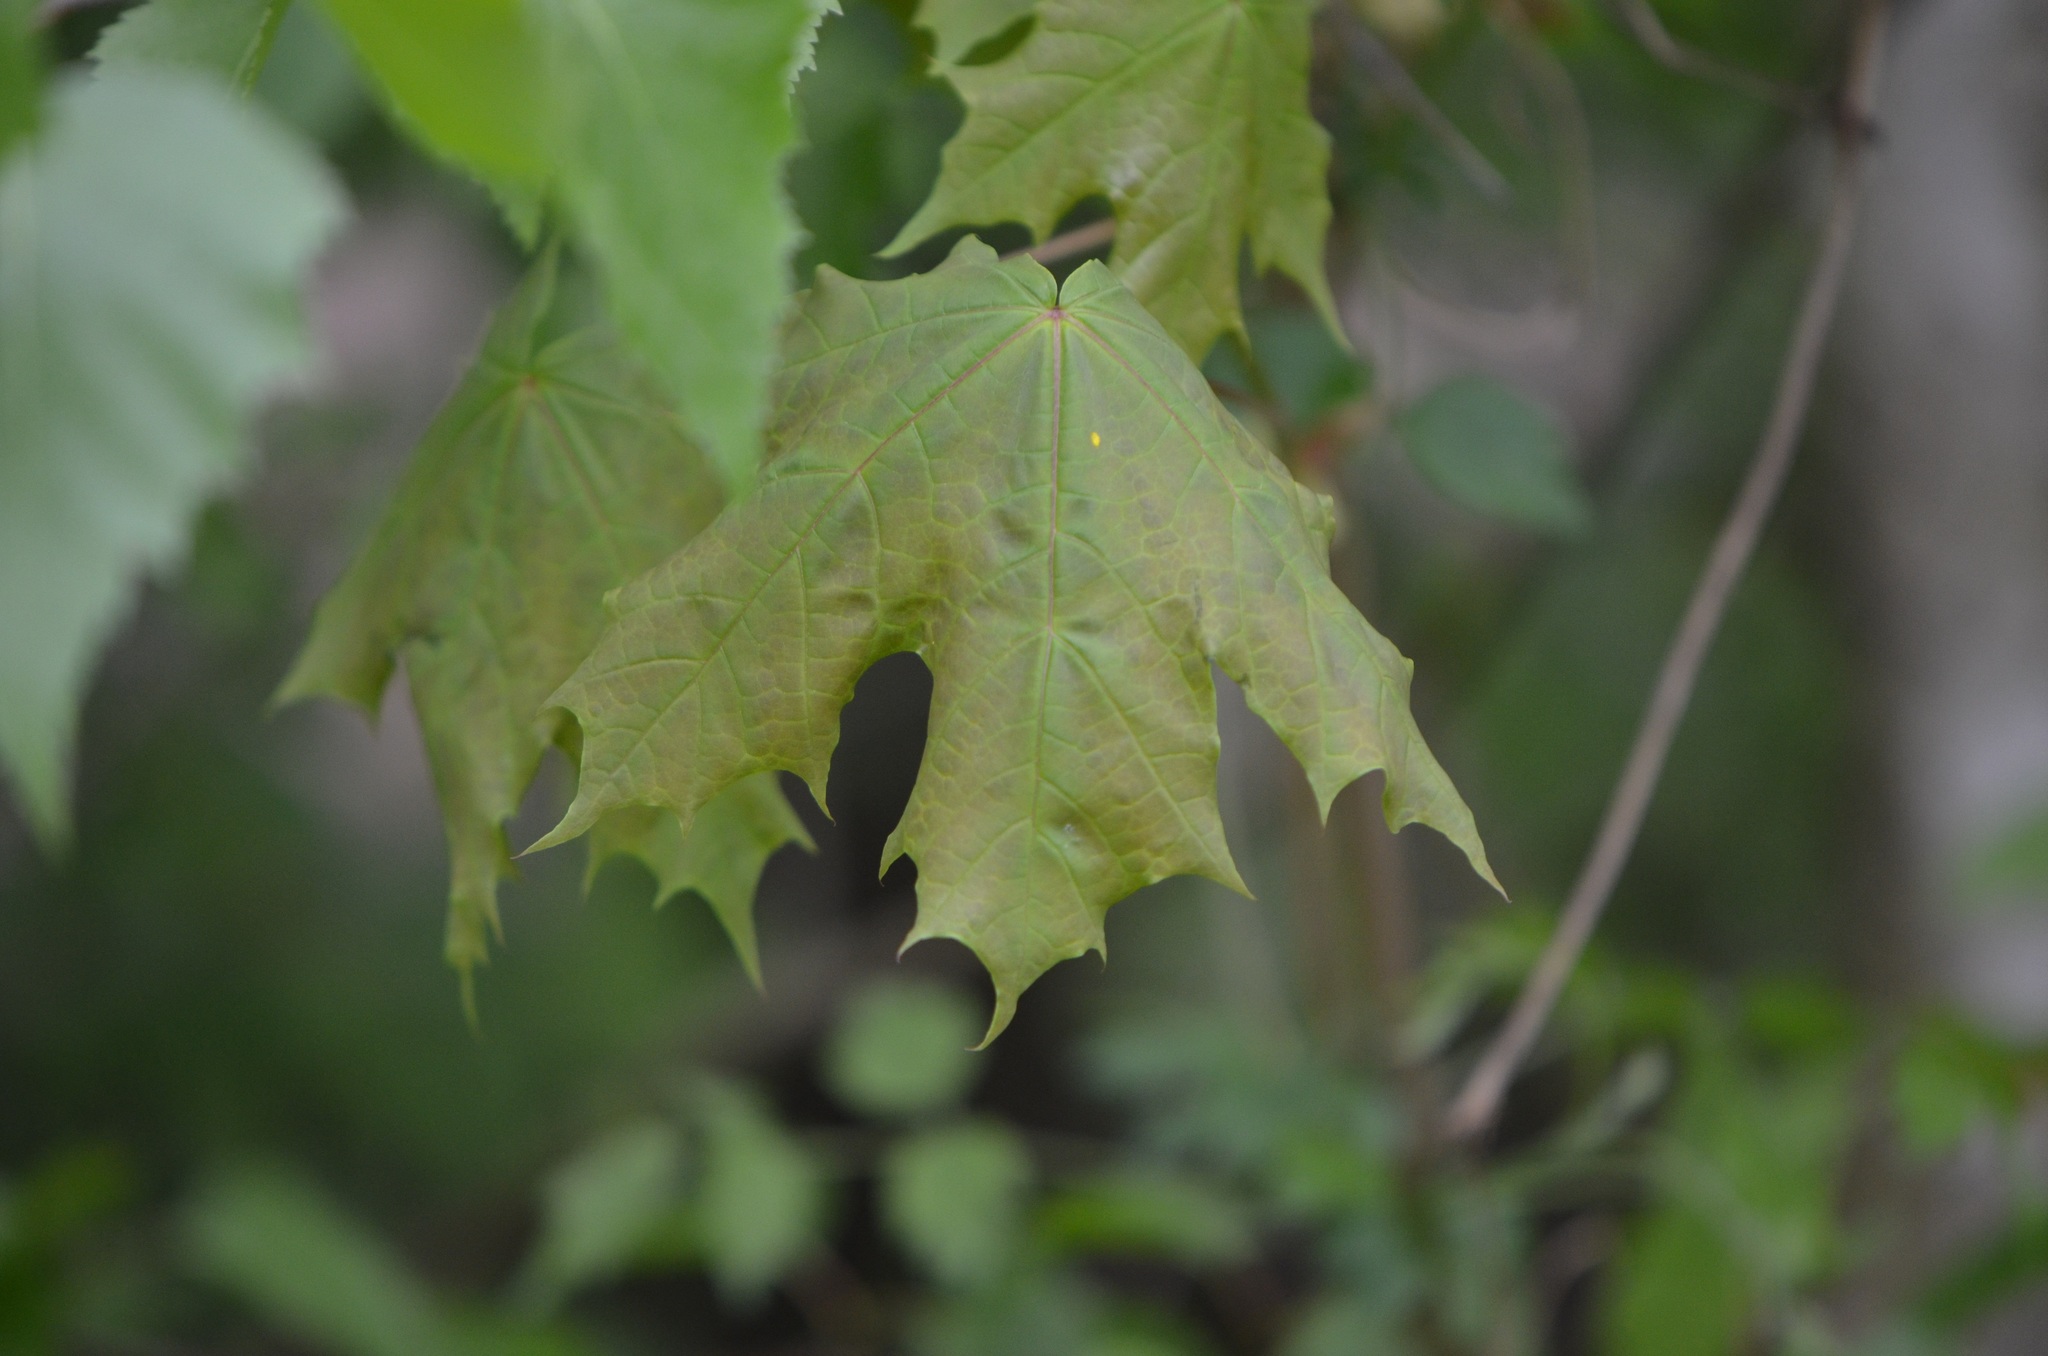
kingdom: Plantae
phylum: Tracheophyta
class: Magnoliopsida
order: Sapindales
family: Sapindaceae
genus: Acer
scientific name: Acer platanoides
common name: Norway maple
